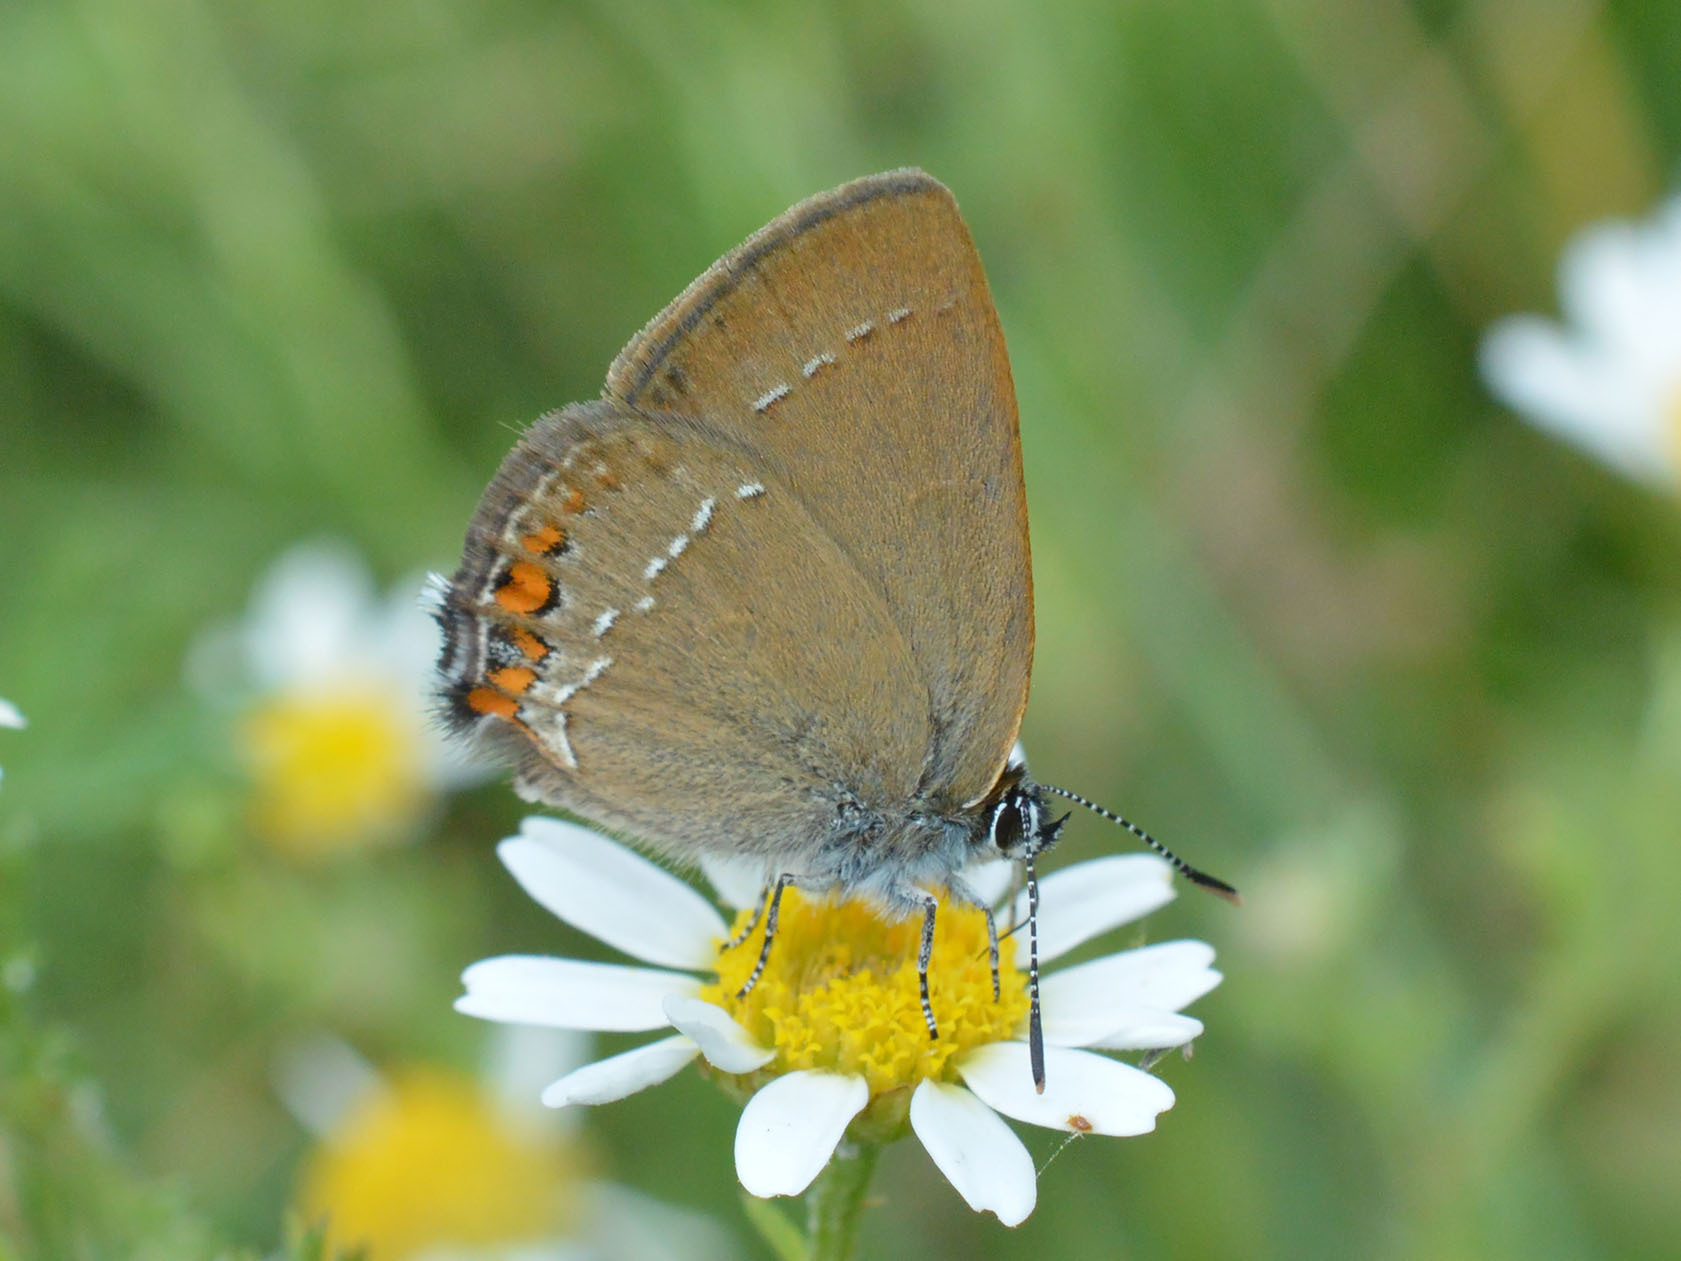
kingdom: Animalia
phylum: Arthropoda
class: Insecta
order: Lepidoptera
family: Lycaenidae
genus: Strymon
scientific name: Strymon acaciae
